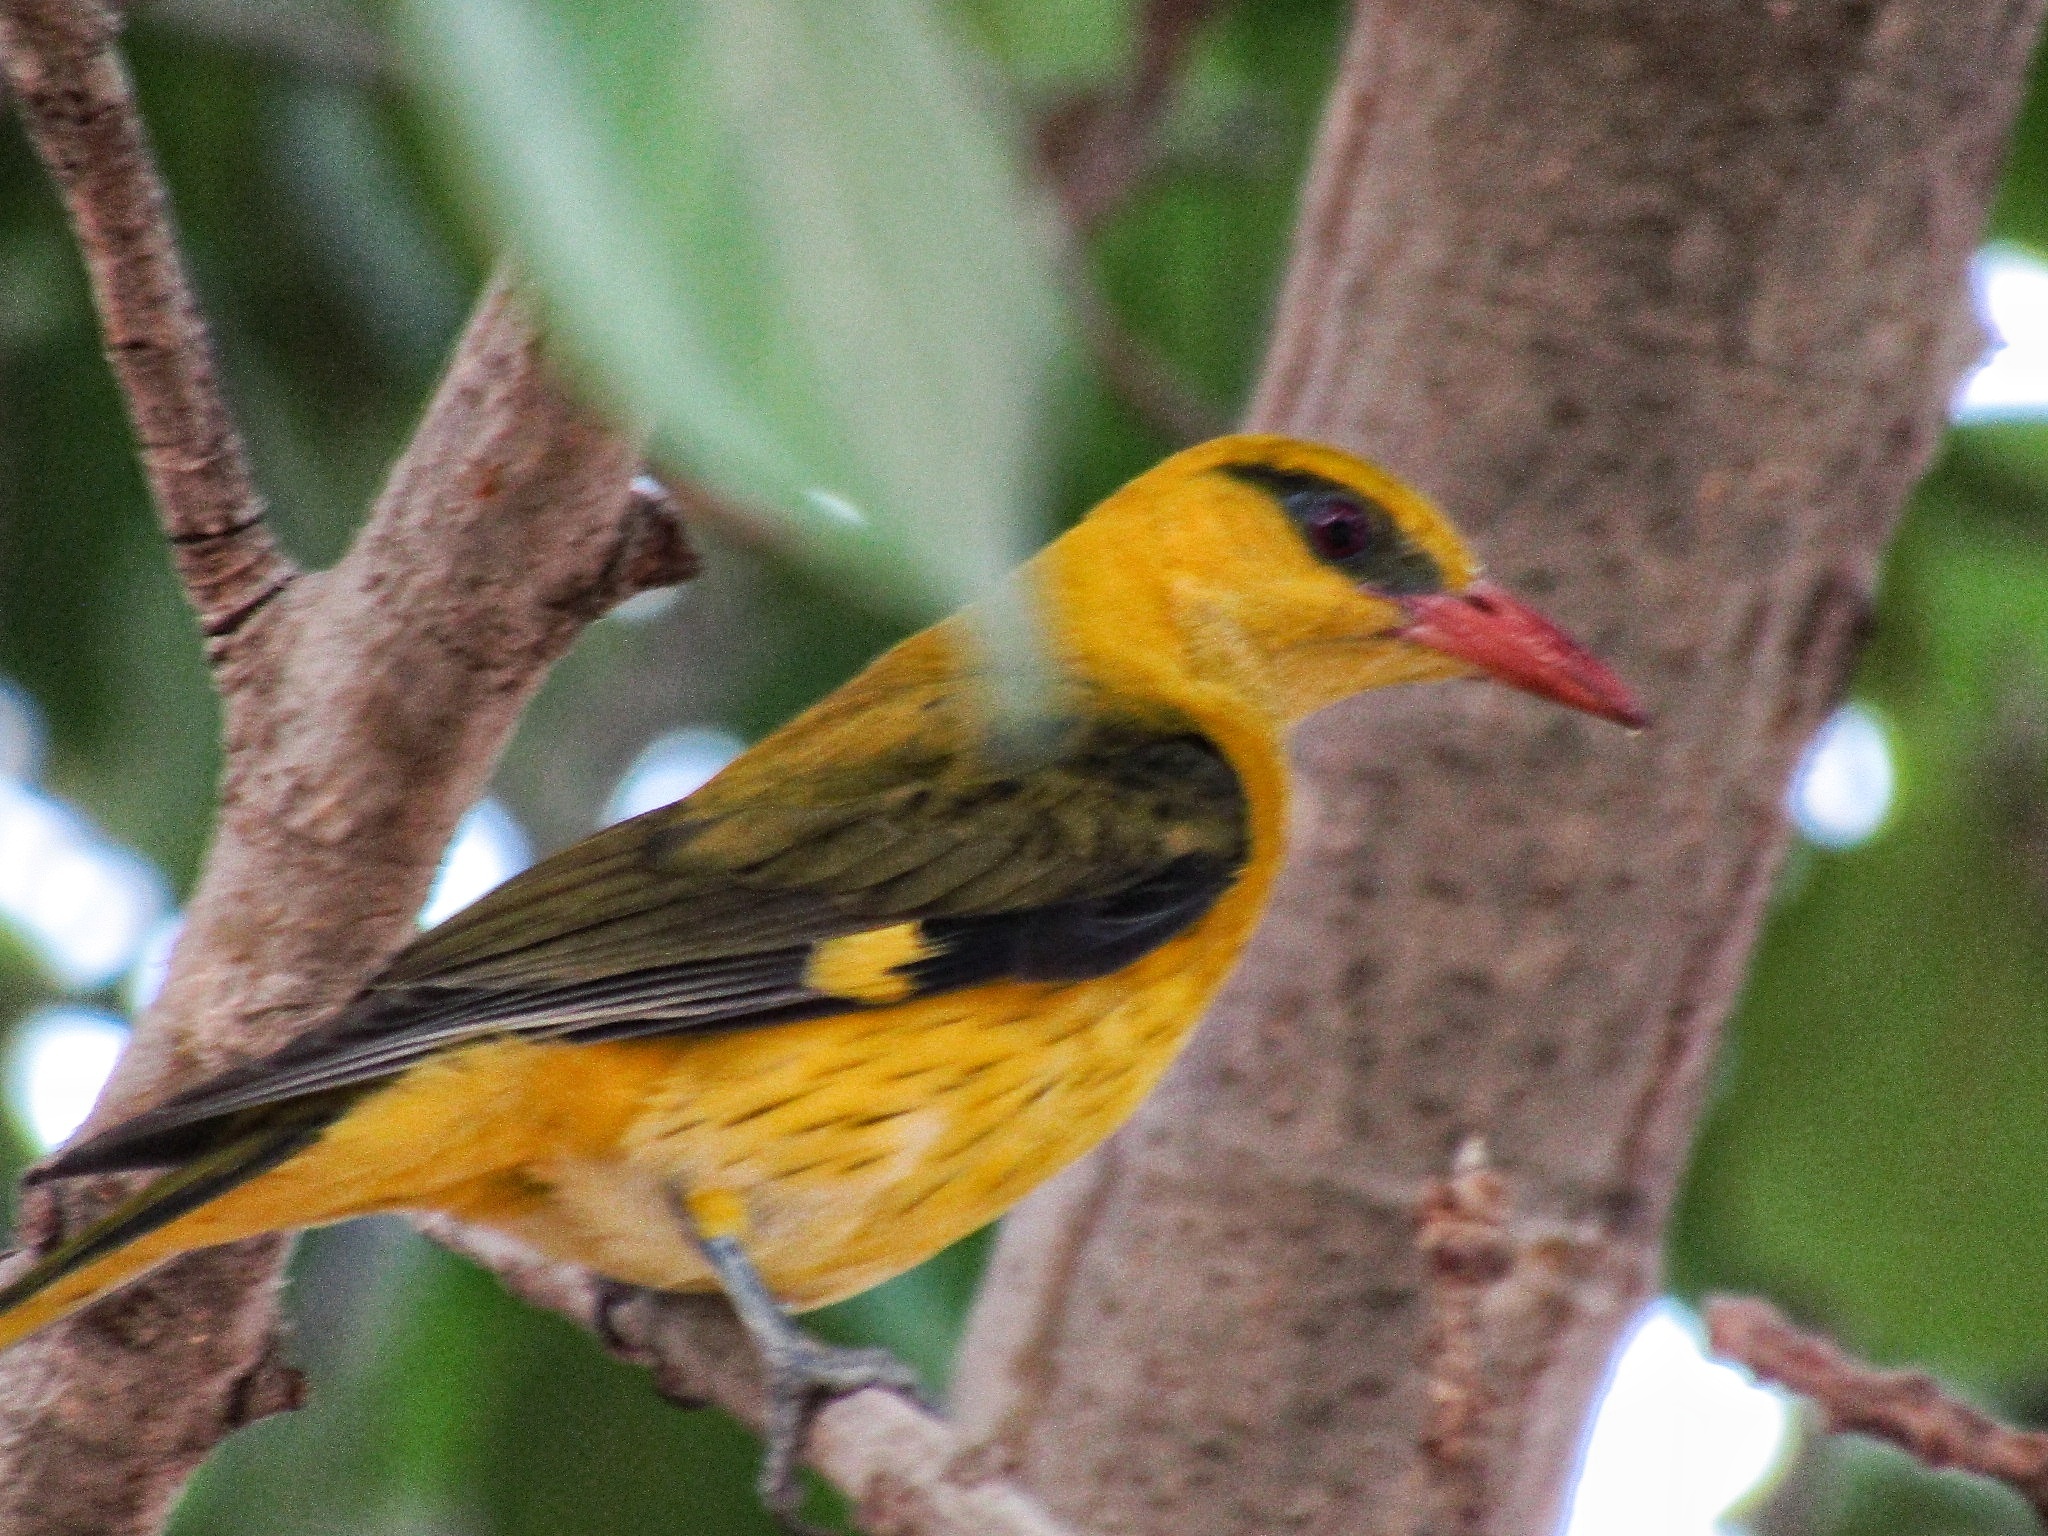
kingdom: Animalia
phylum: Chordata
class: Aves
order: Passeriformes
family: Oriolidae
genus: Oriolus
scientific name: Oriolus kundoo
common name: Indian golden oriole
